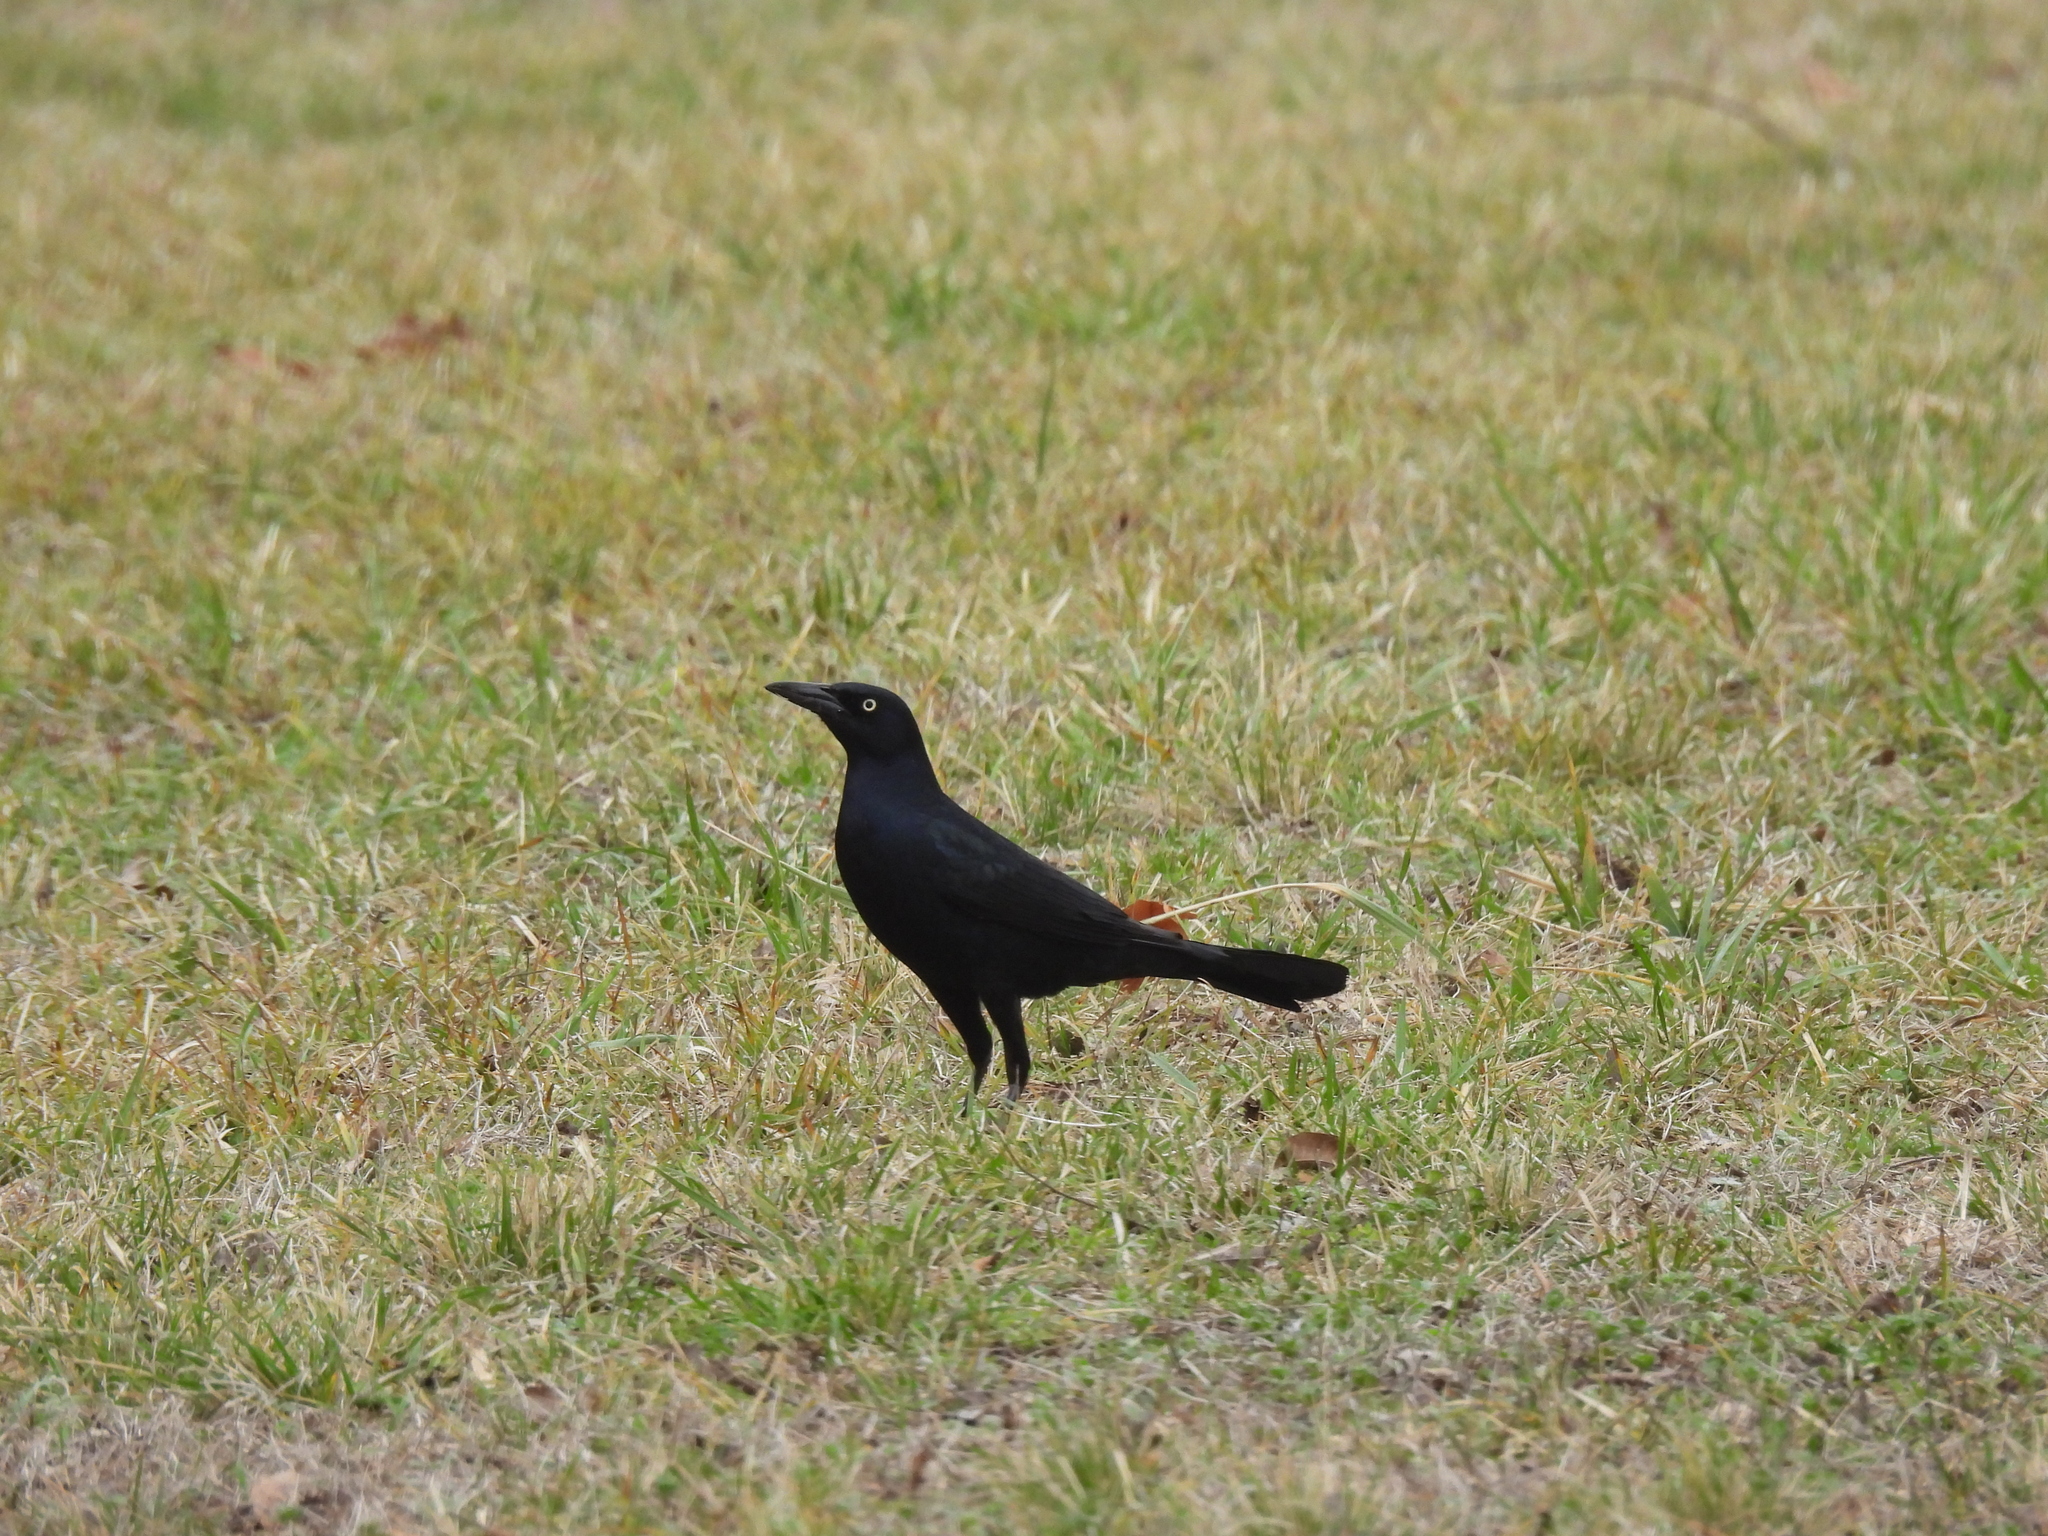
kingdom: Animalia
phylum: Chordata
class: Aves
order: Passeriformes
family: Icteridae
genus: Quiscalus
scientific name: Quiscalus mexicanus
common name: Great-tailed grackle
